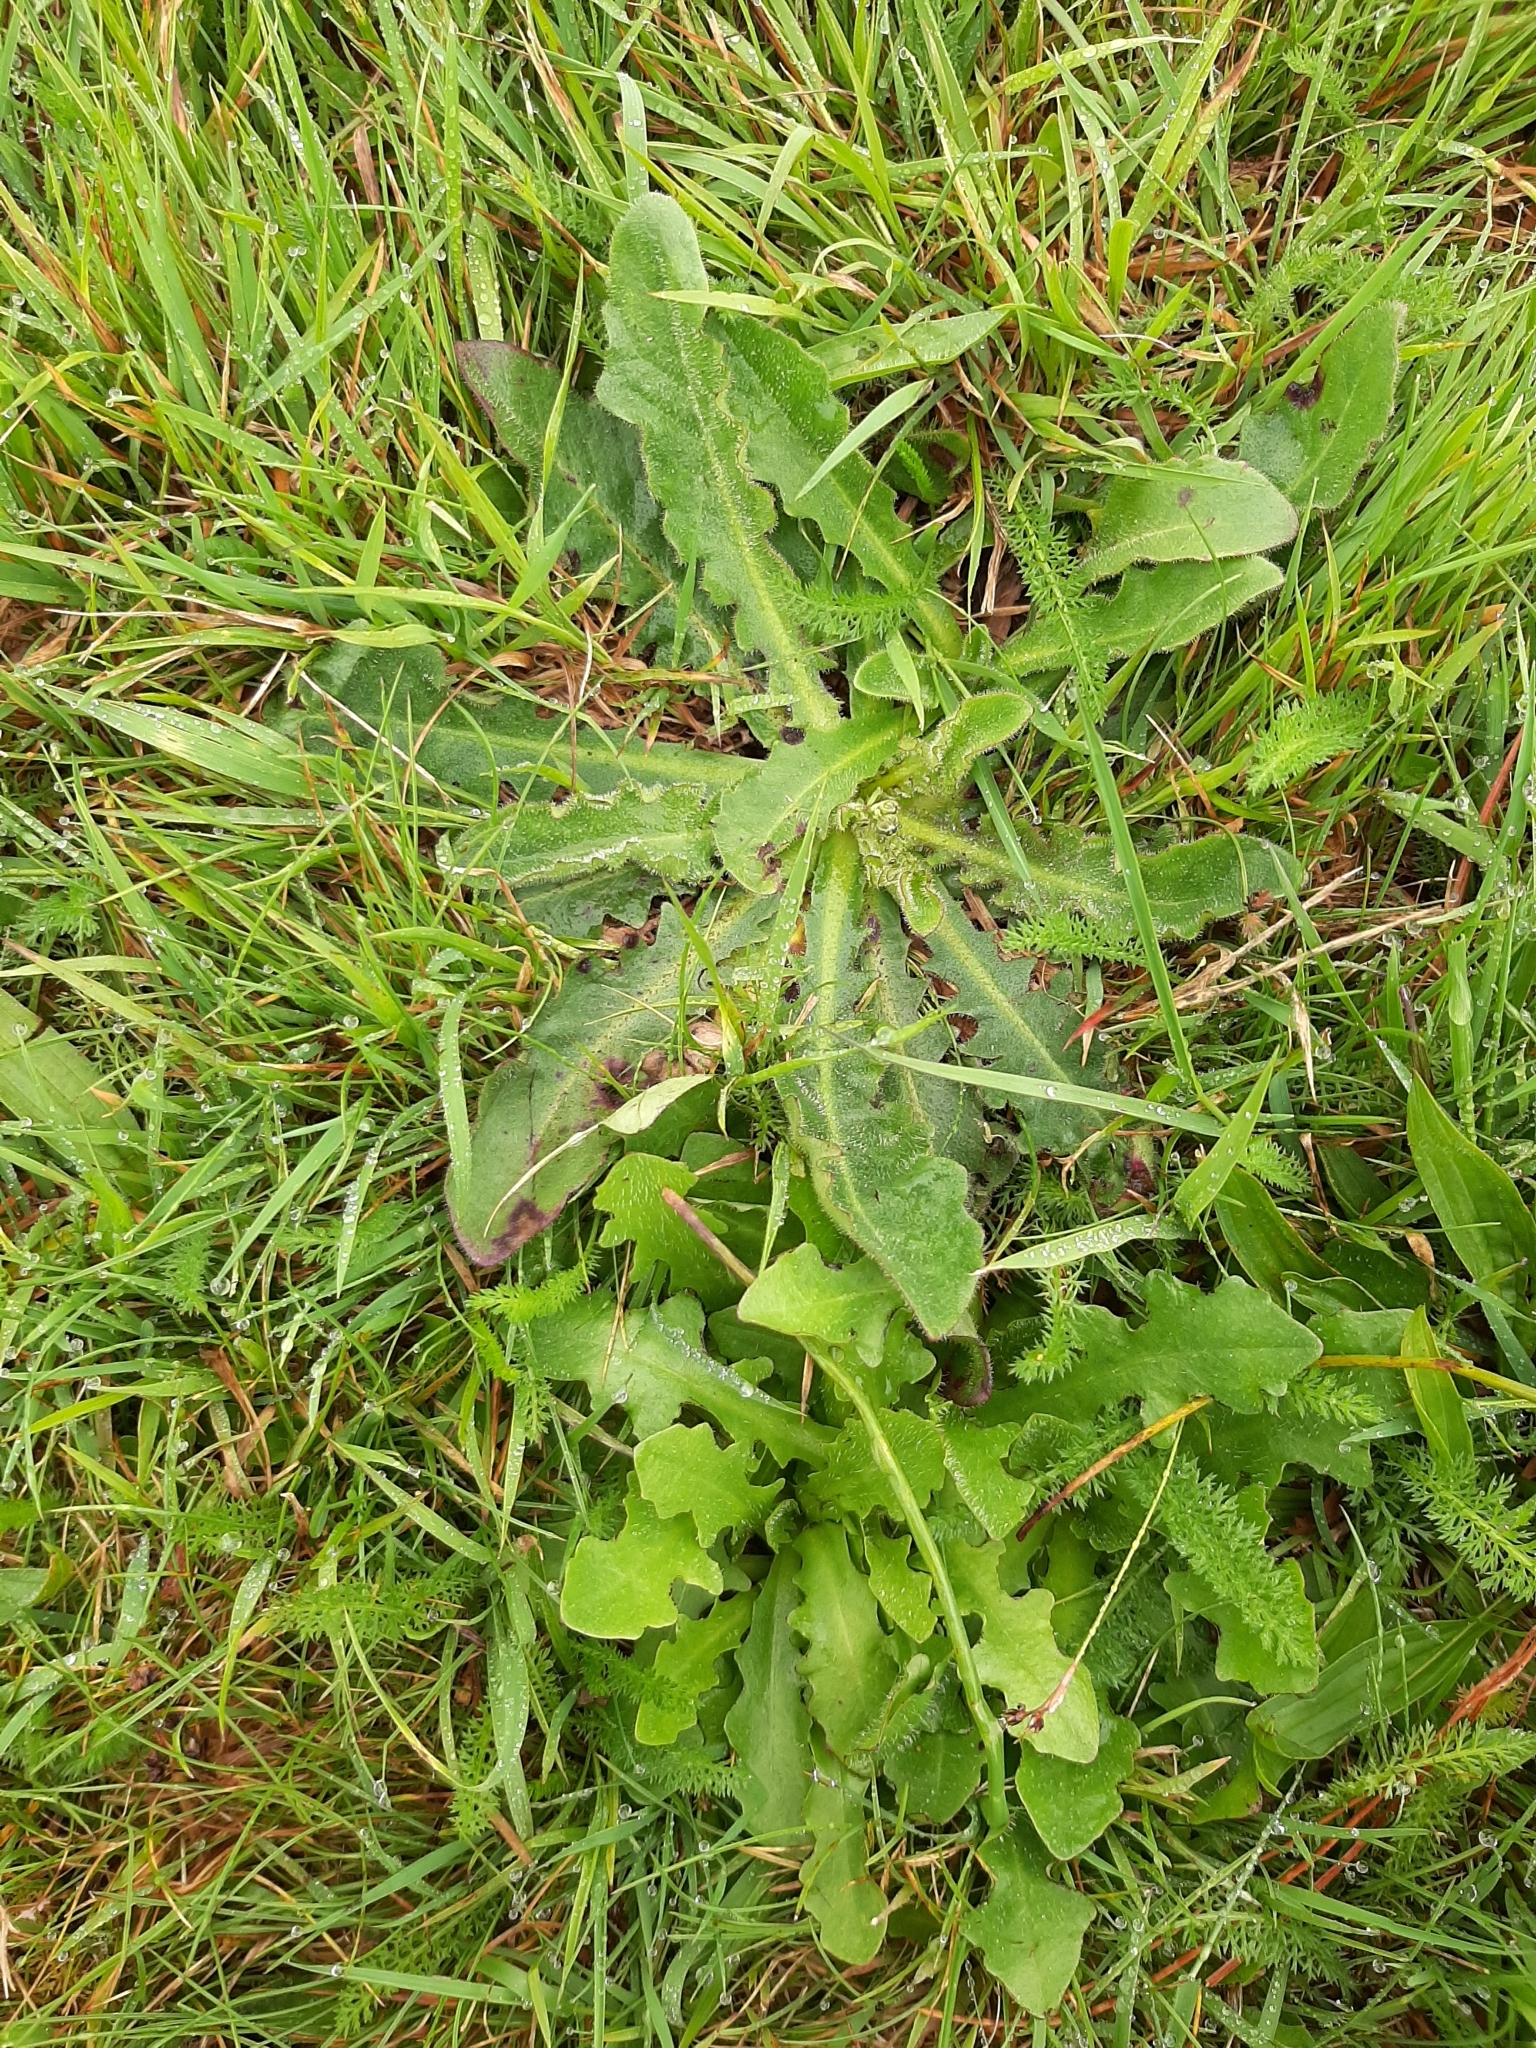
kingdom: Plantae
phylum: Tracheophyta
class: Magnoliopsida
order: Asterales
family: Asteraceae
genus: Hypochaeris
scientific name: Hypochaeris radicata
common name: Flatweed
